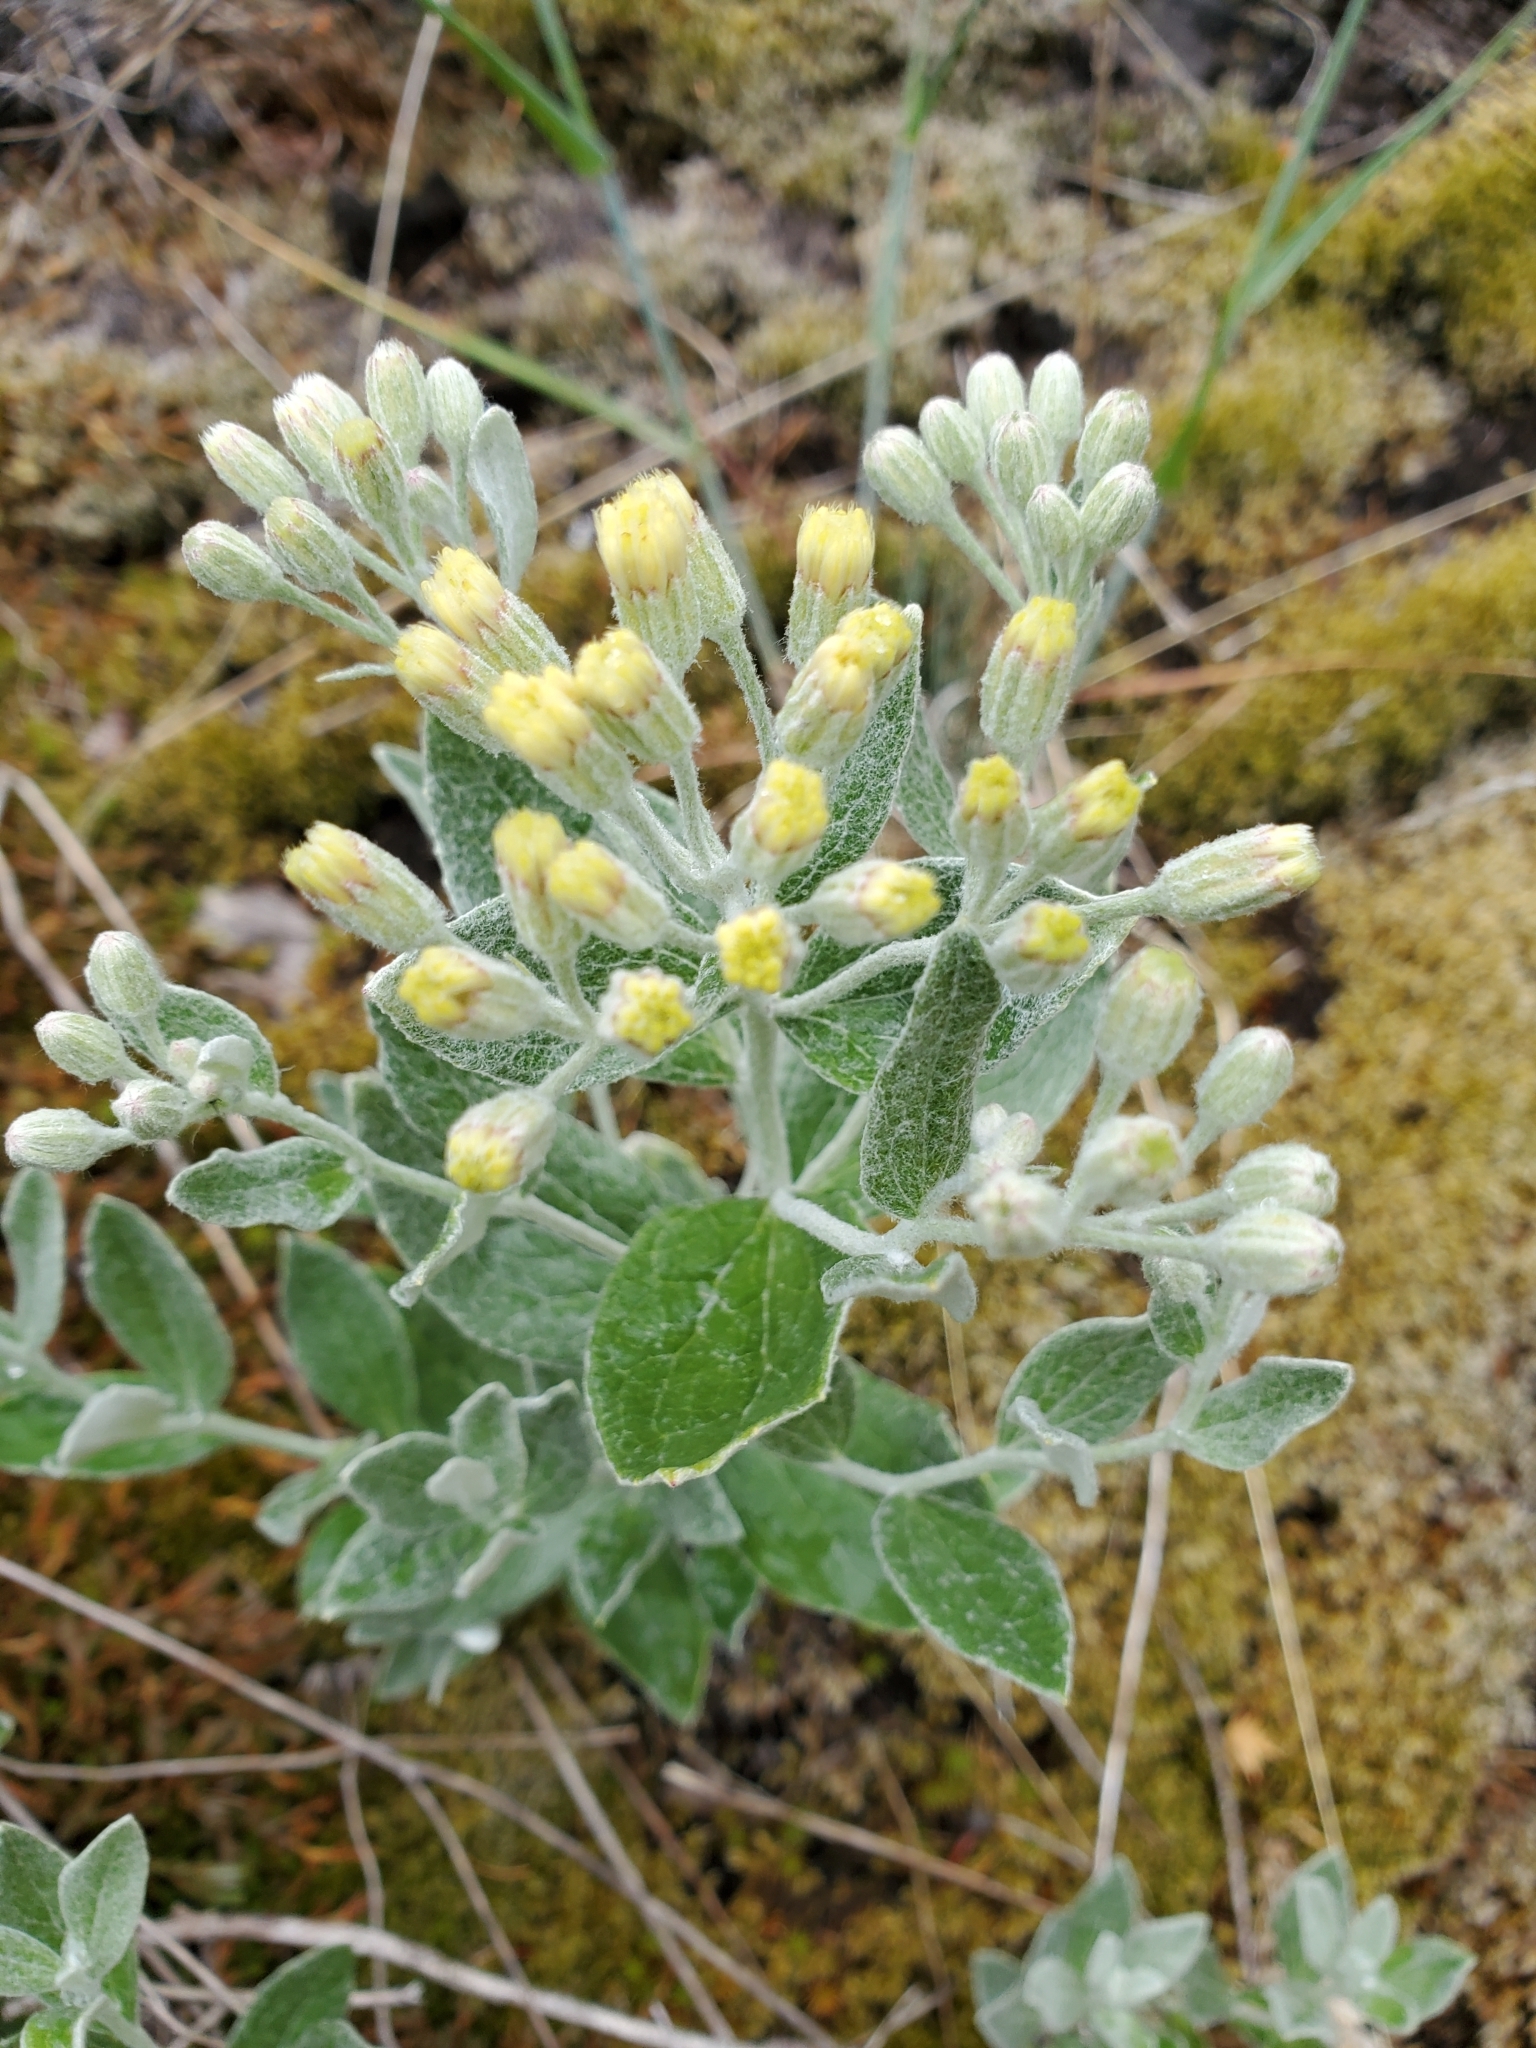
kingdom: Plantae
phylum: Tracheophyta
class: Magnoliopsida
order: Asterales
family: Asteraceae
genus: Luina
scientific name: Luina hypoleuca
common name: Little-leaved luina
